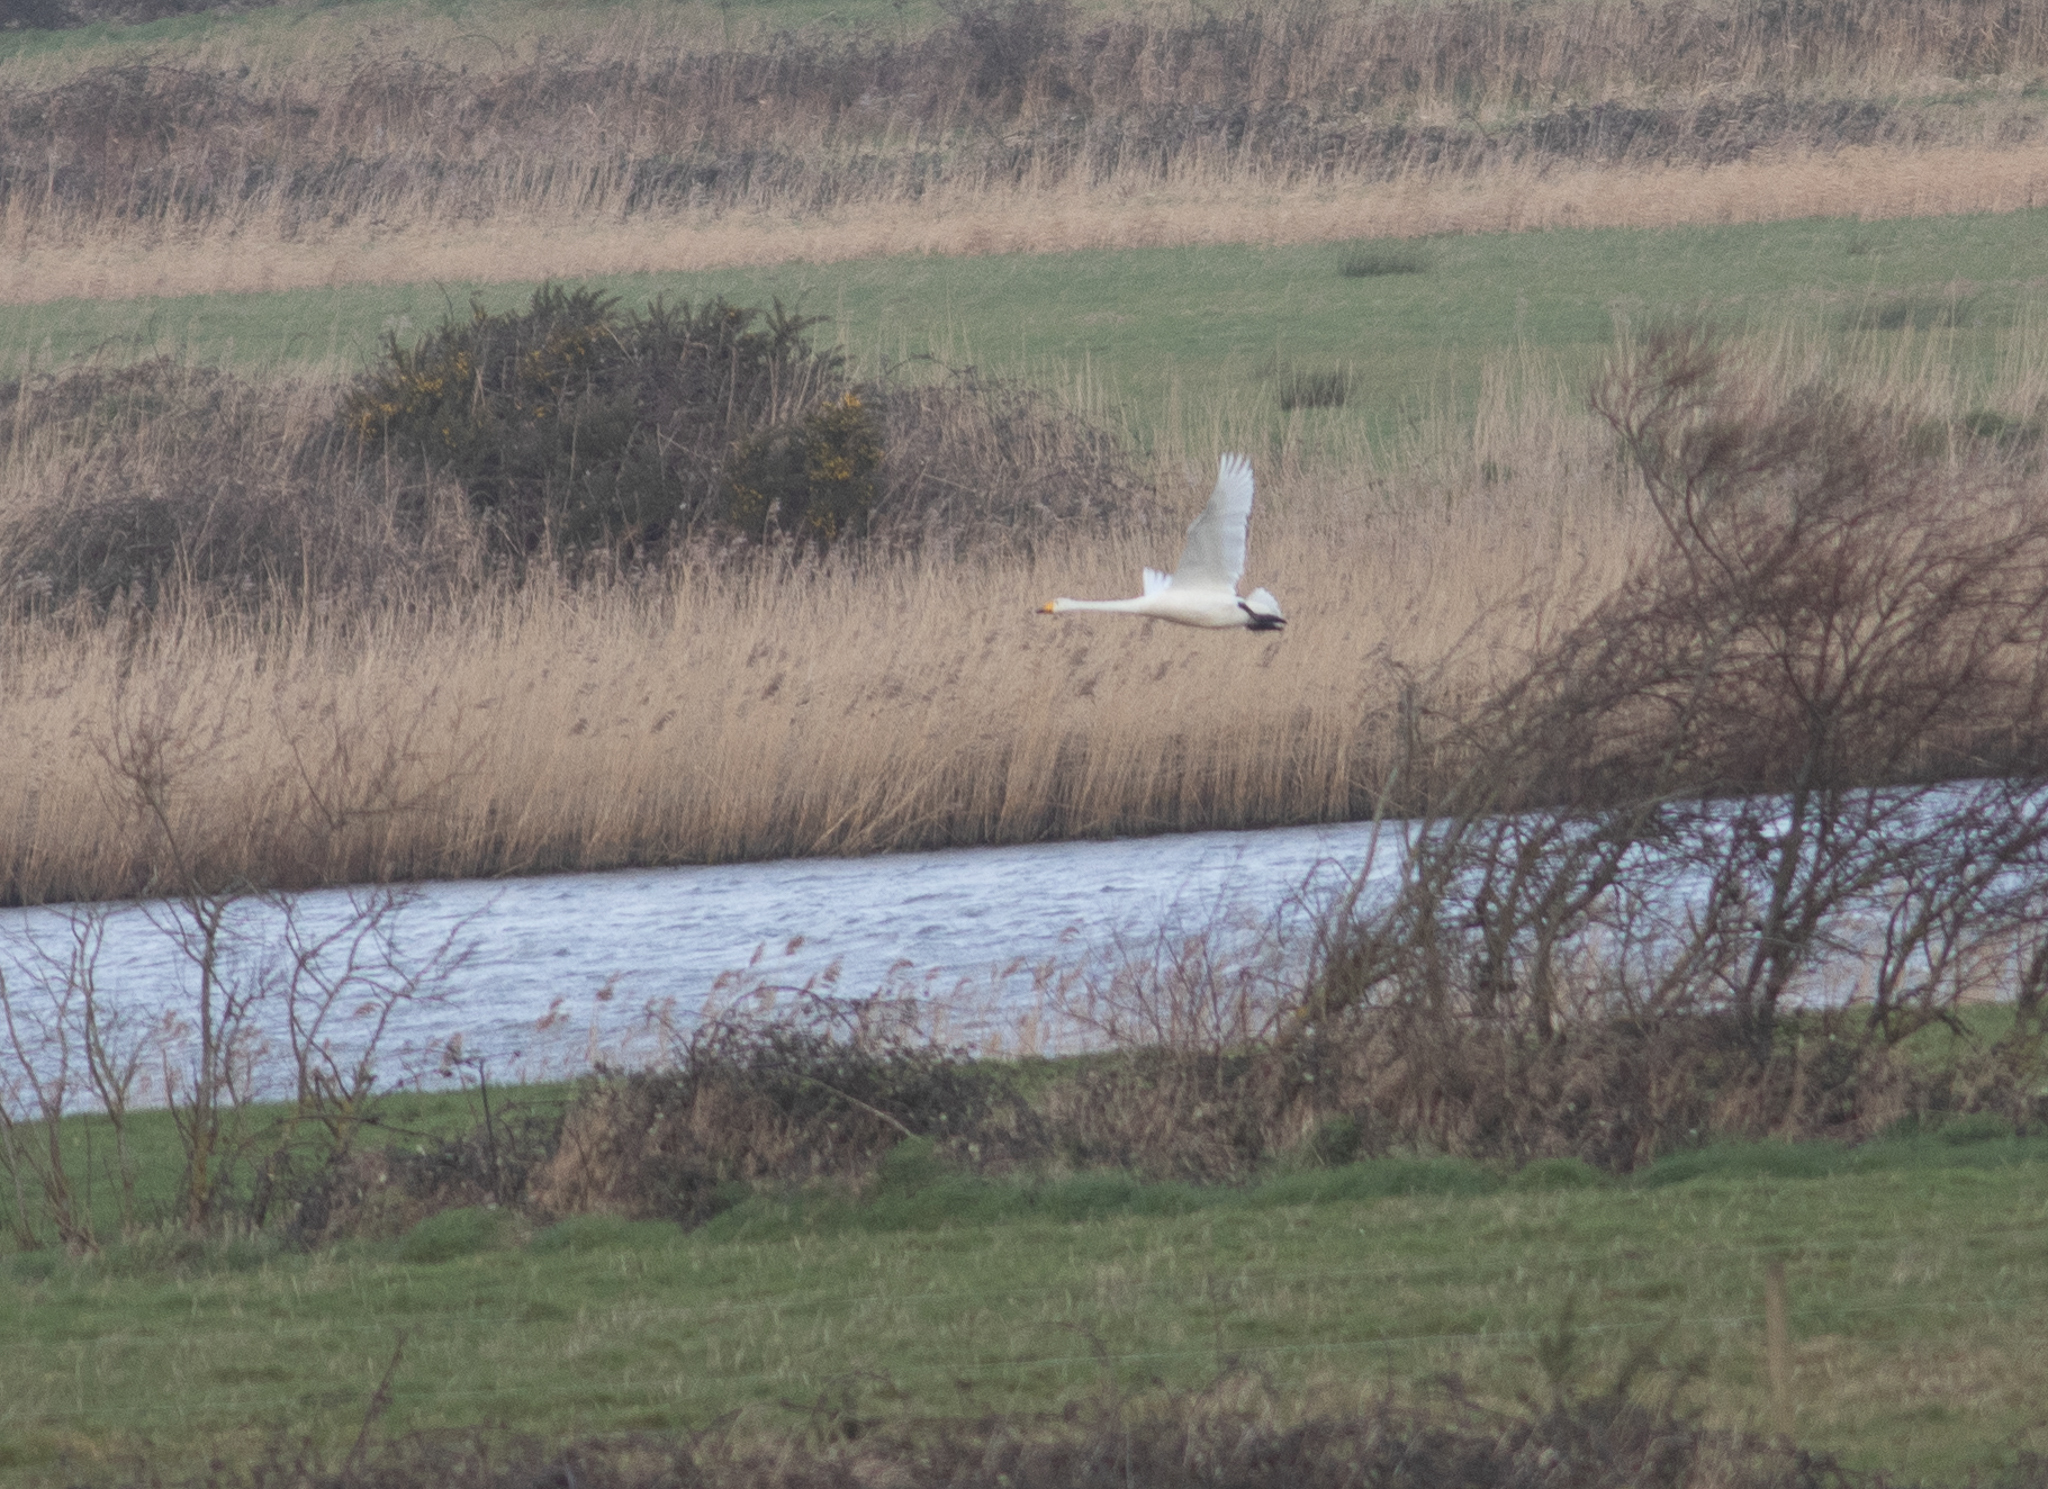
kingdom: Animalia
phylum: Chordata
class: Aves
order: Anseriformes
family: Anatidae
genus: Cygnus
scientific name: Cygnus cygnus
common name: Whooper swan
